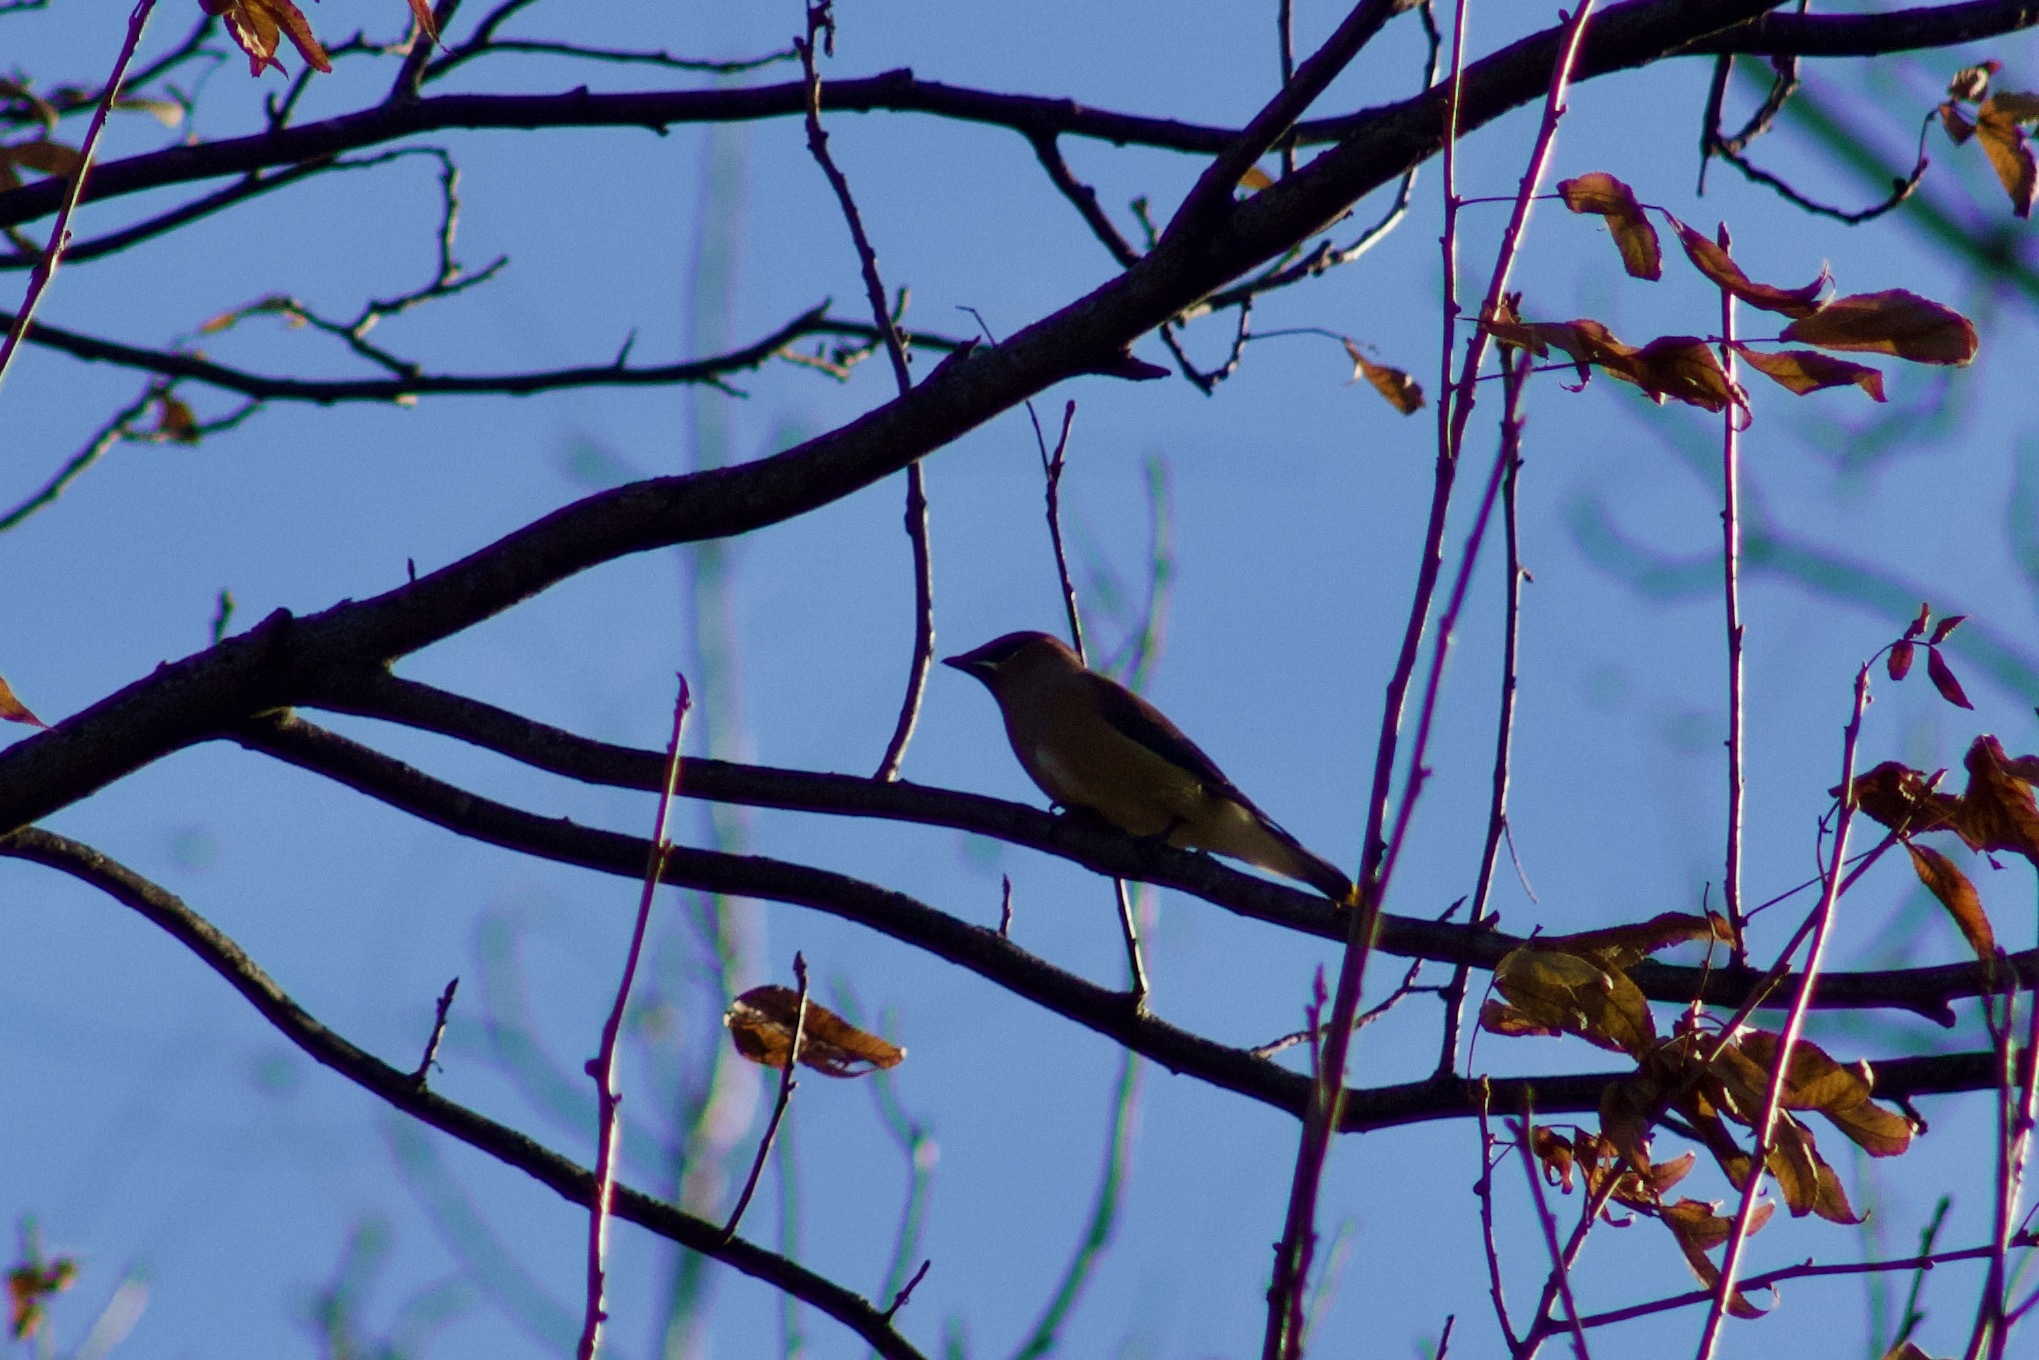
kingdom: Animalia
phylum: Chordata
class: Aves
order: Passeriformes
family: Bombycillidae
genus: Bombycilla
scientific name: Bombycilla cedrorum
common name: Cedar waxwing
